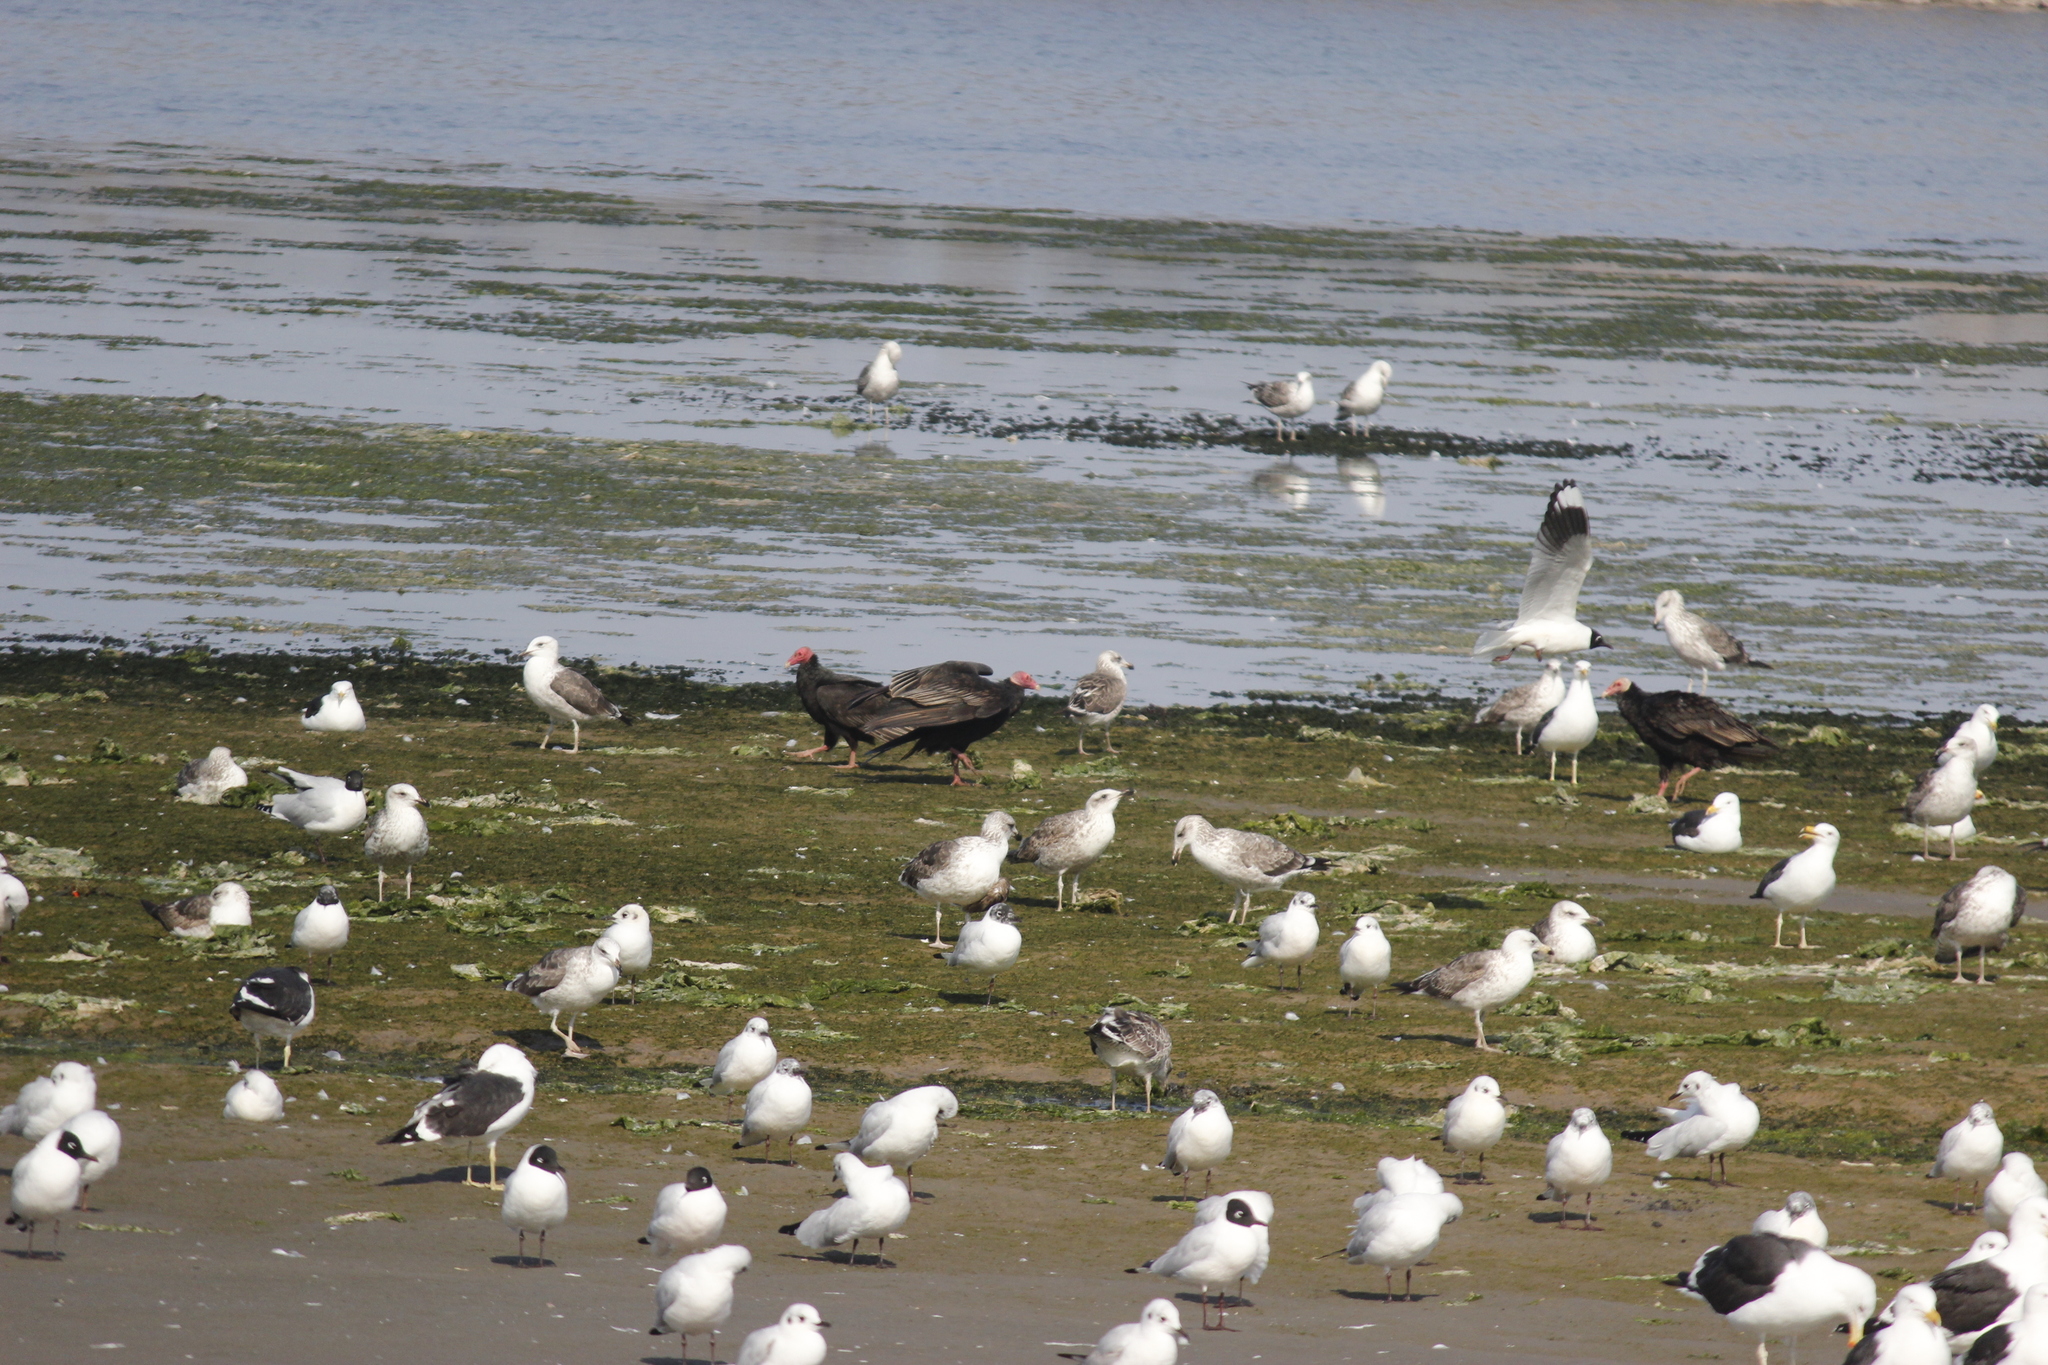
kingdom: Animalia
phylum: Chordata
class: Aves
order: Charadriiformes
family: Laridae
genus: Larus
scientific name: Larus belcheri
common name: Belcher's gull
